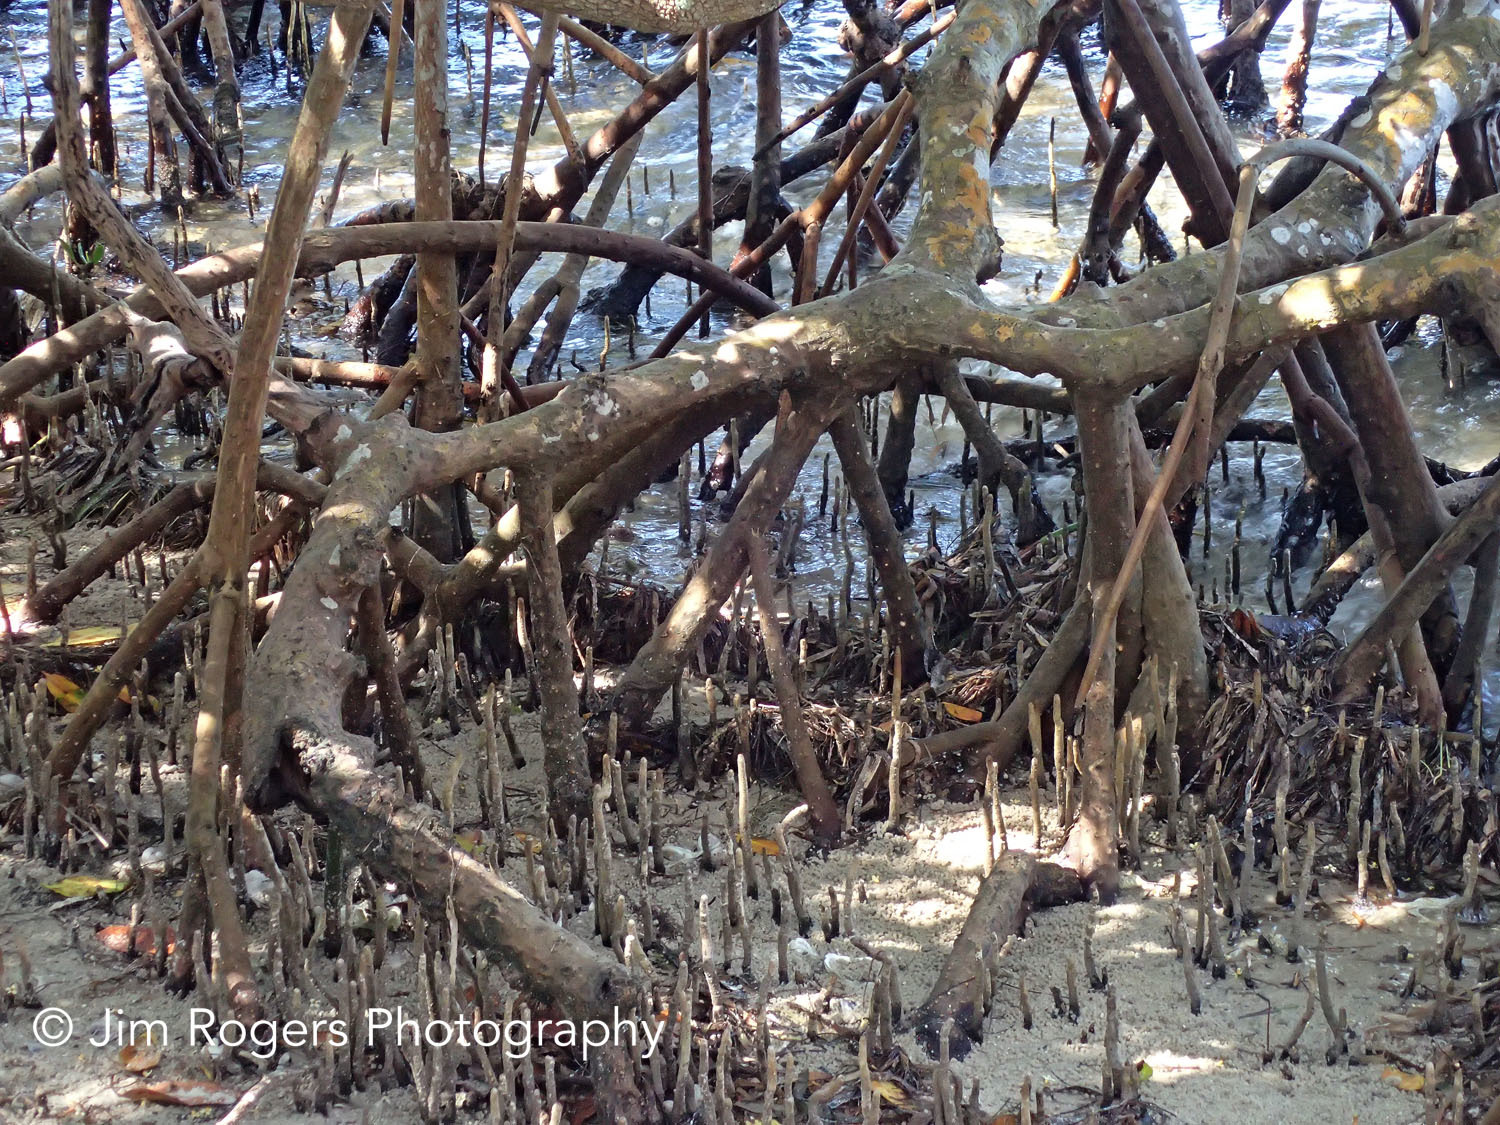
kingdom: Plantae
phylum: Tracheophyta
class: Magnoliopsida
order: Malpighiales
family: Rhizophoraceae
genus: Rhizophora
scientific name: Rhizophora mangle
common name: Red mangrove
